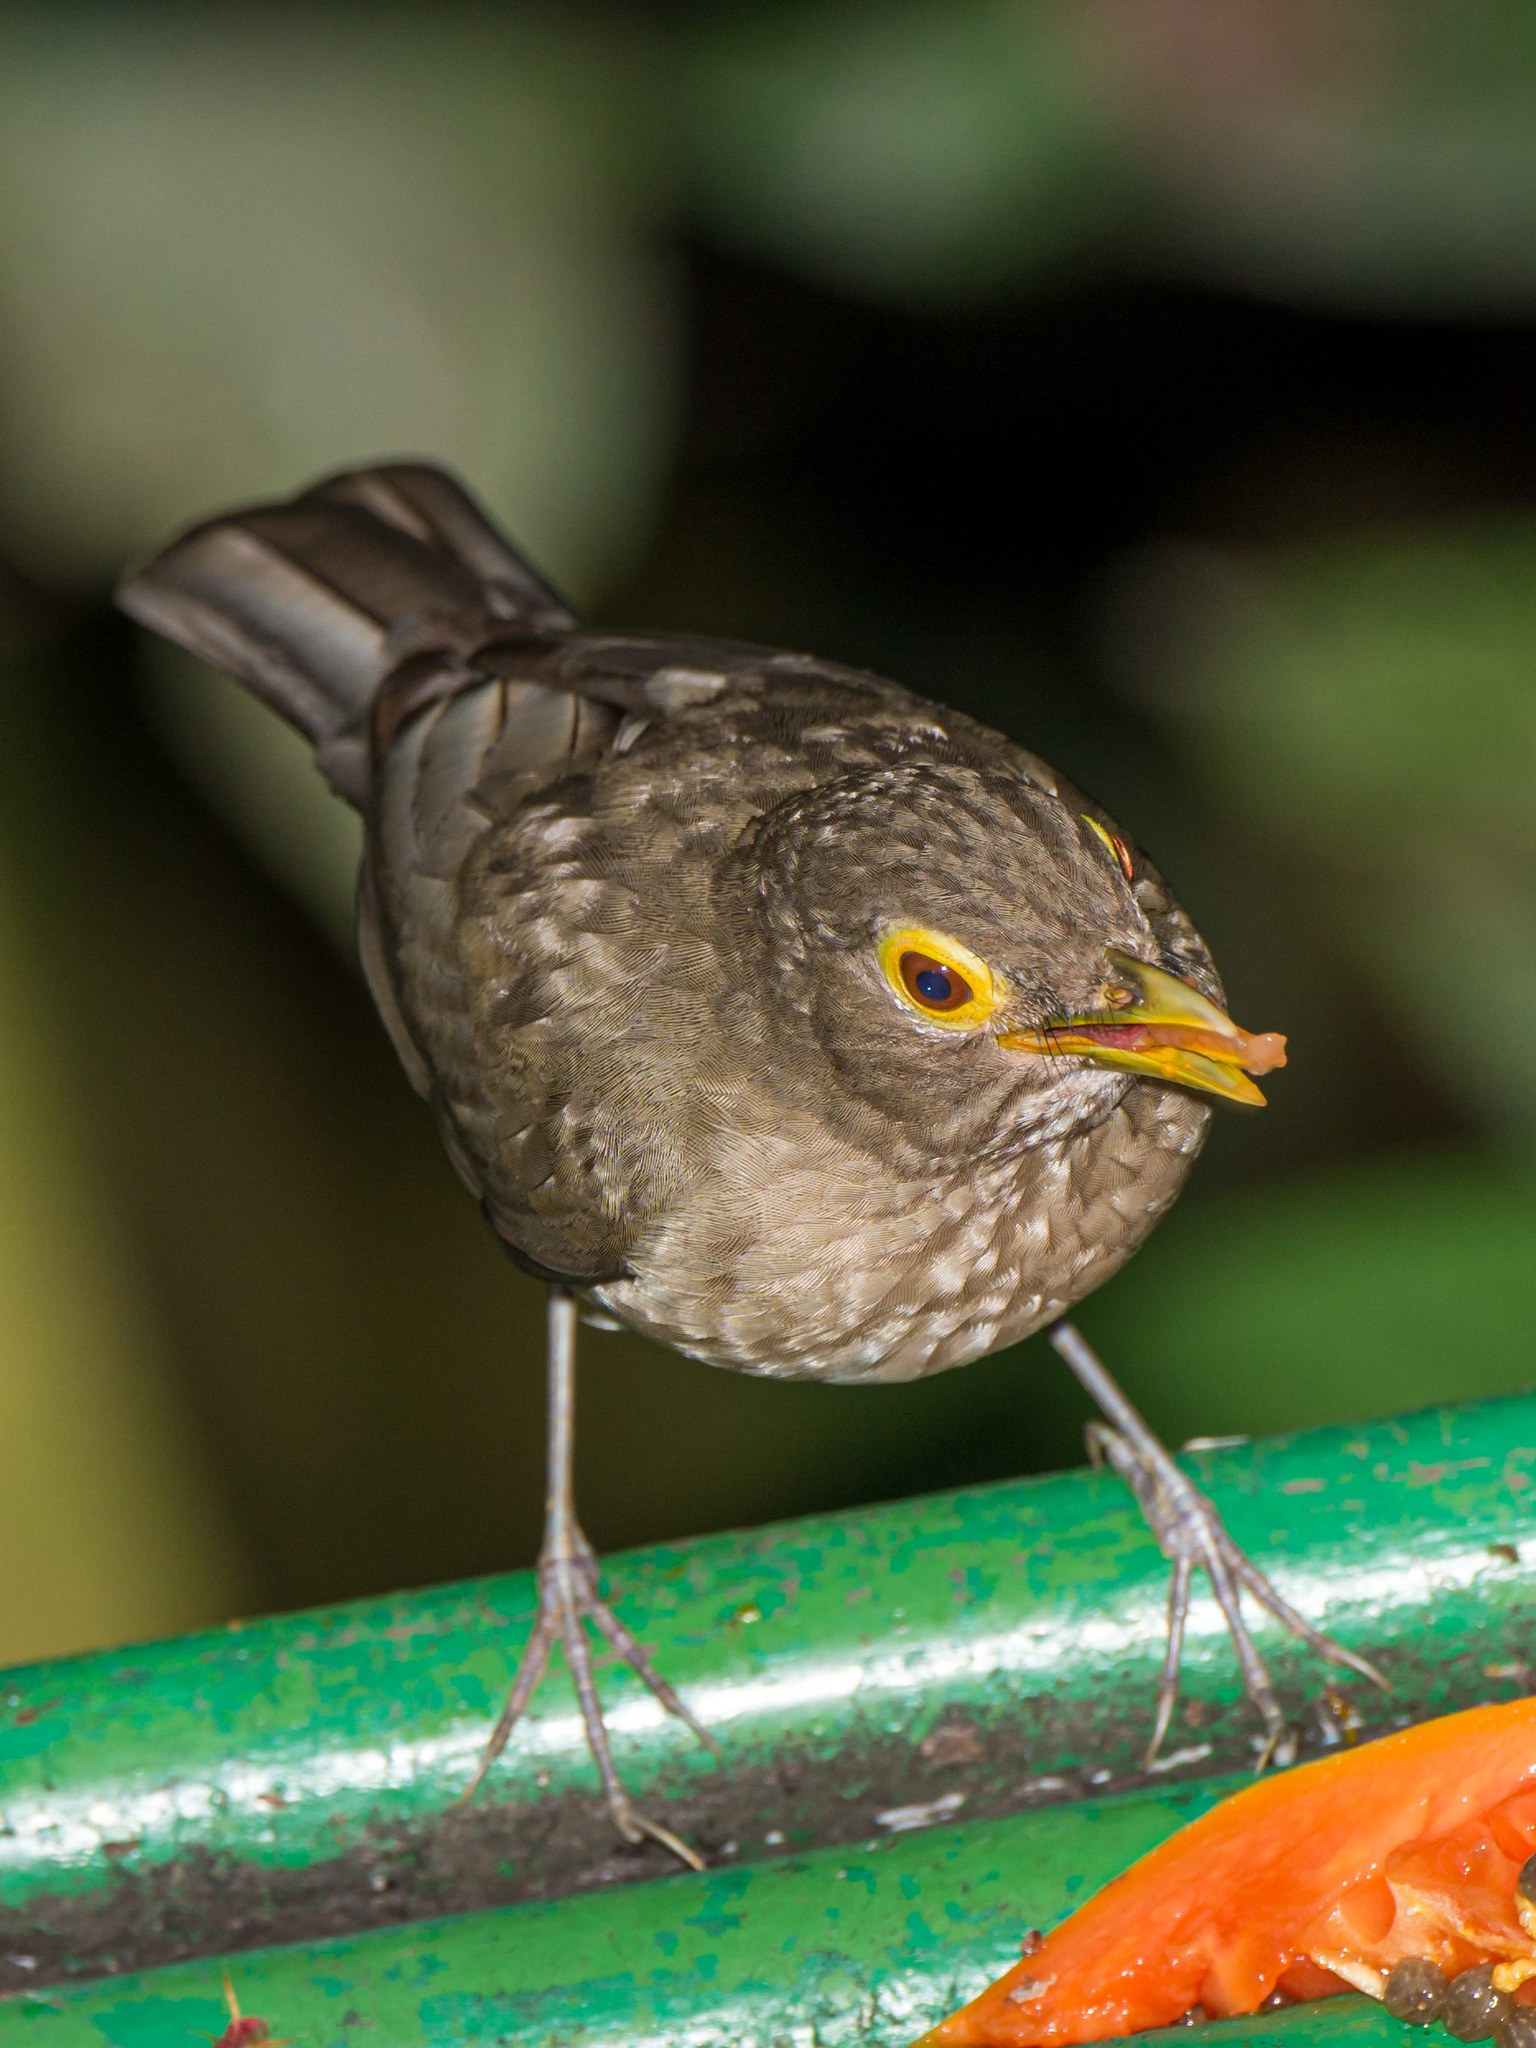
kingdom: Animalia
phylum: Chordata
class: Aves
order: Passeriformes
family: Turdidae
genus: Turdus
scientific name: Turdus nudigenis
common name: Spectacled thrush
